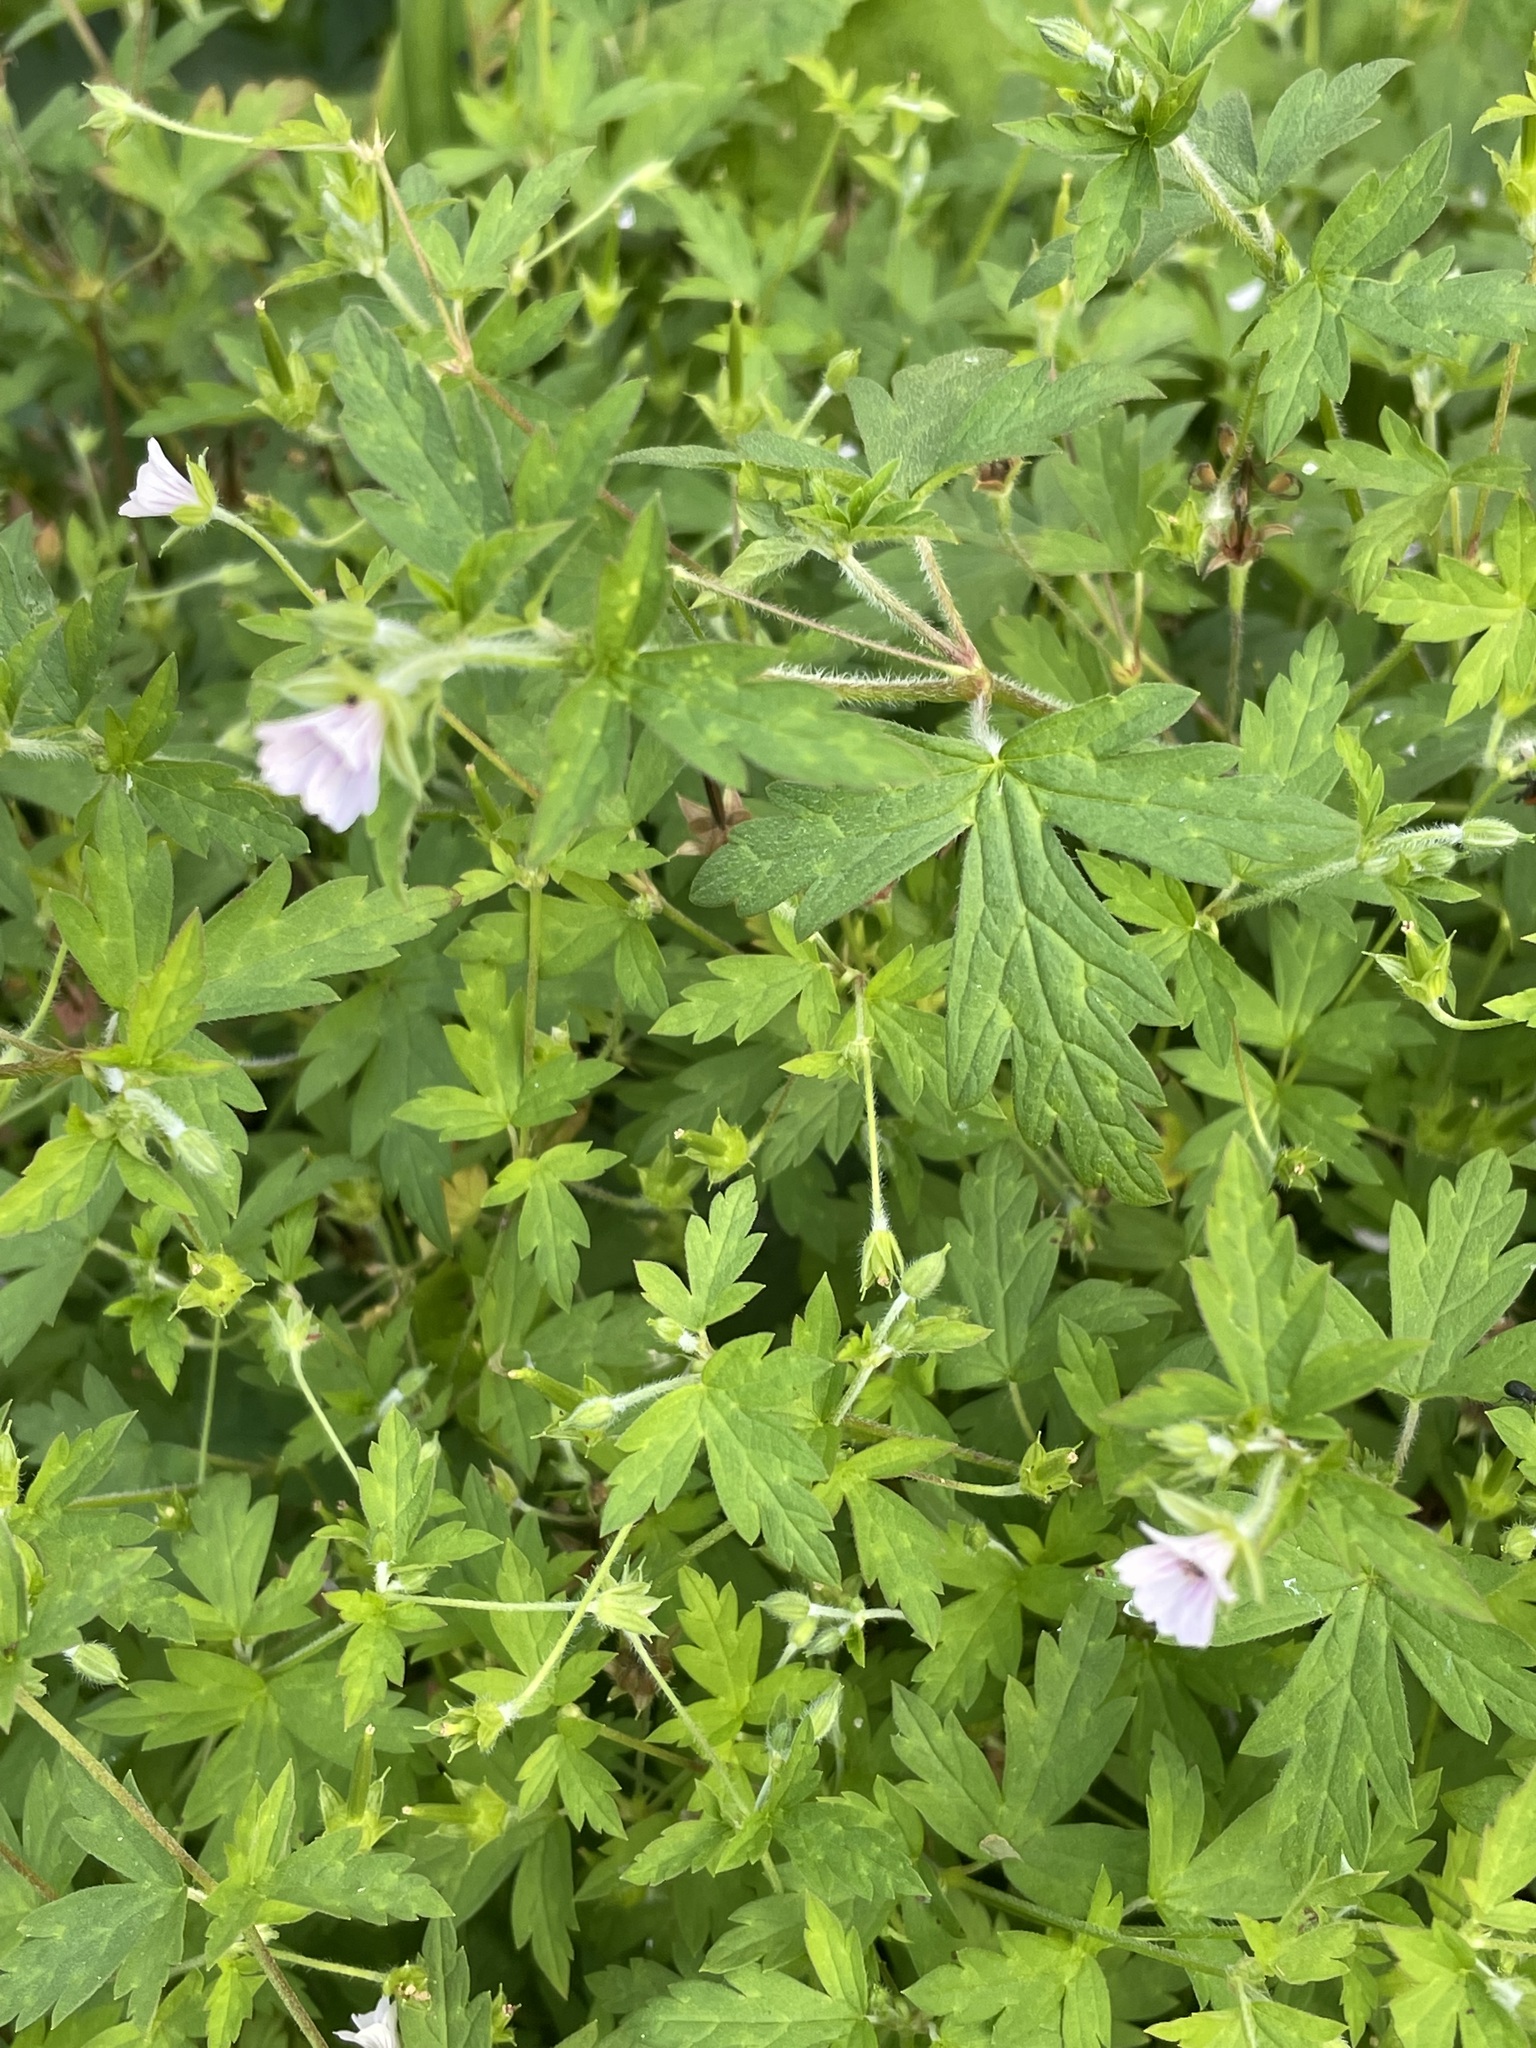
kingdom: Plantae
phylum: Tracheophyta
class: Magnoliopsida
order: Geraniales
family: Geraniaceae
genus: Geranium
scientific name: Geranium sibiricum
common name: Siberian crane's-bill
